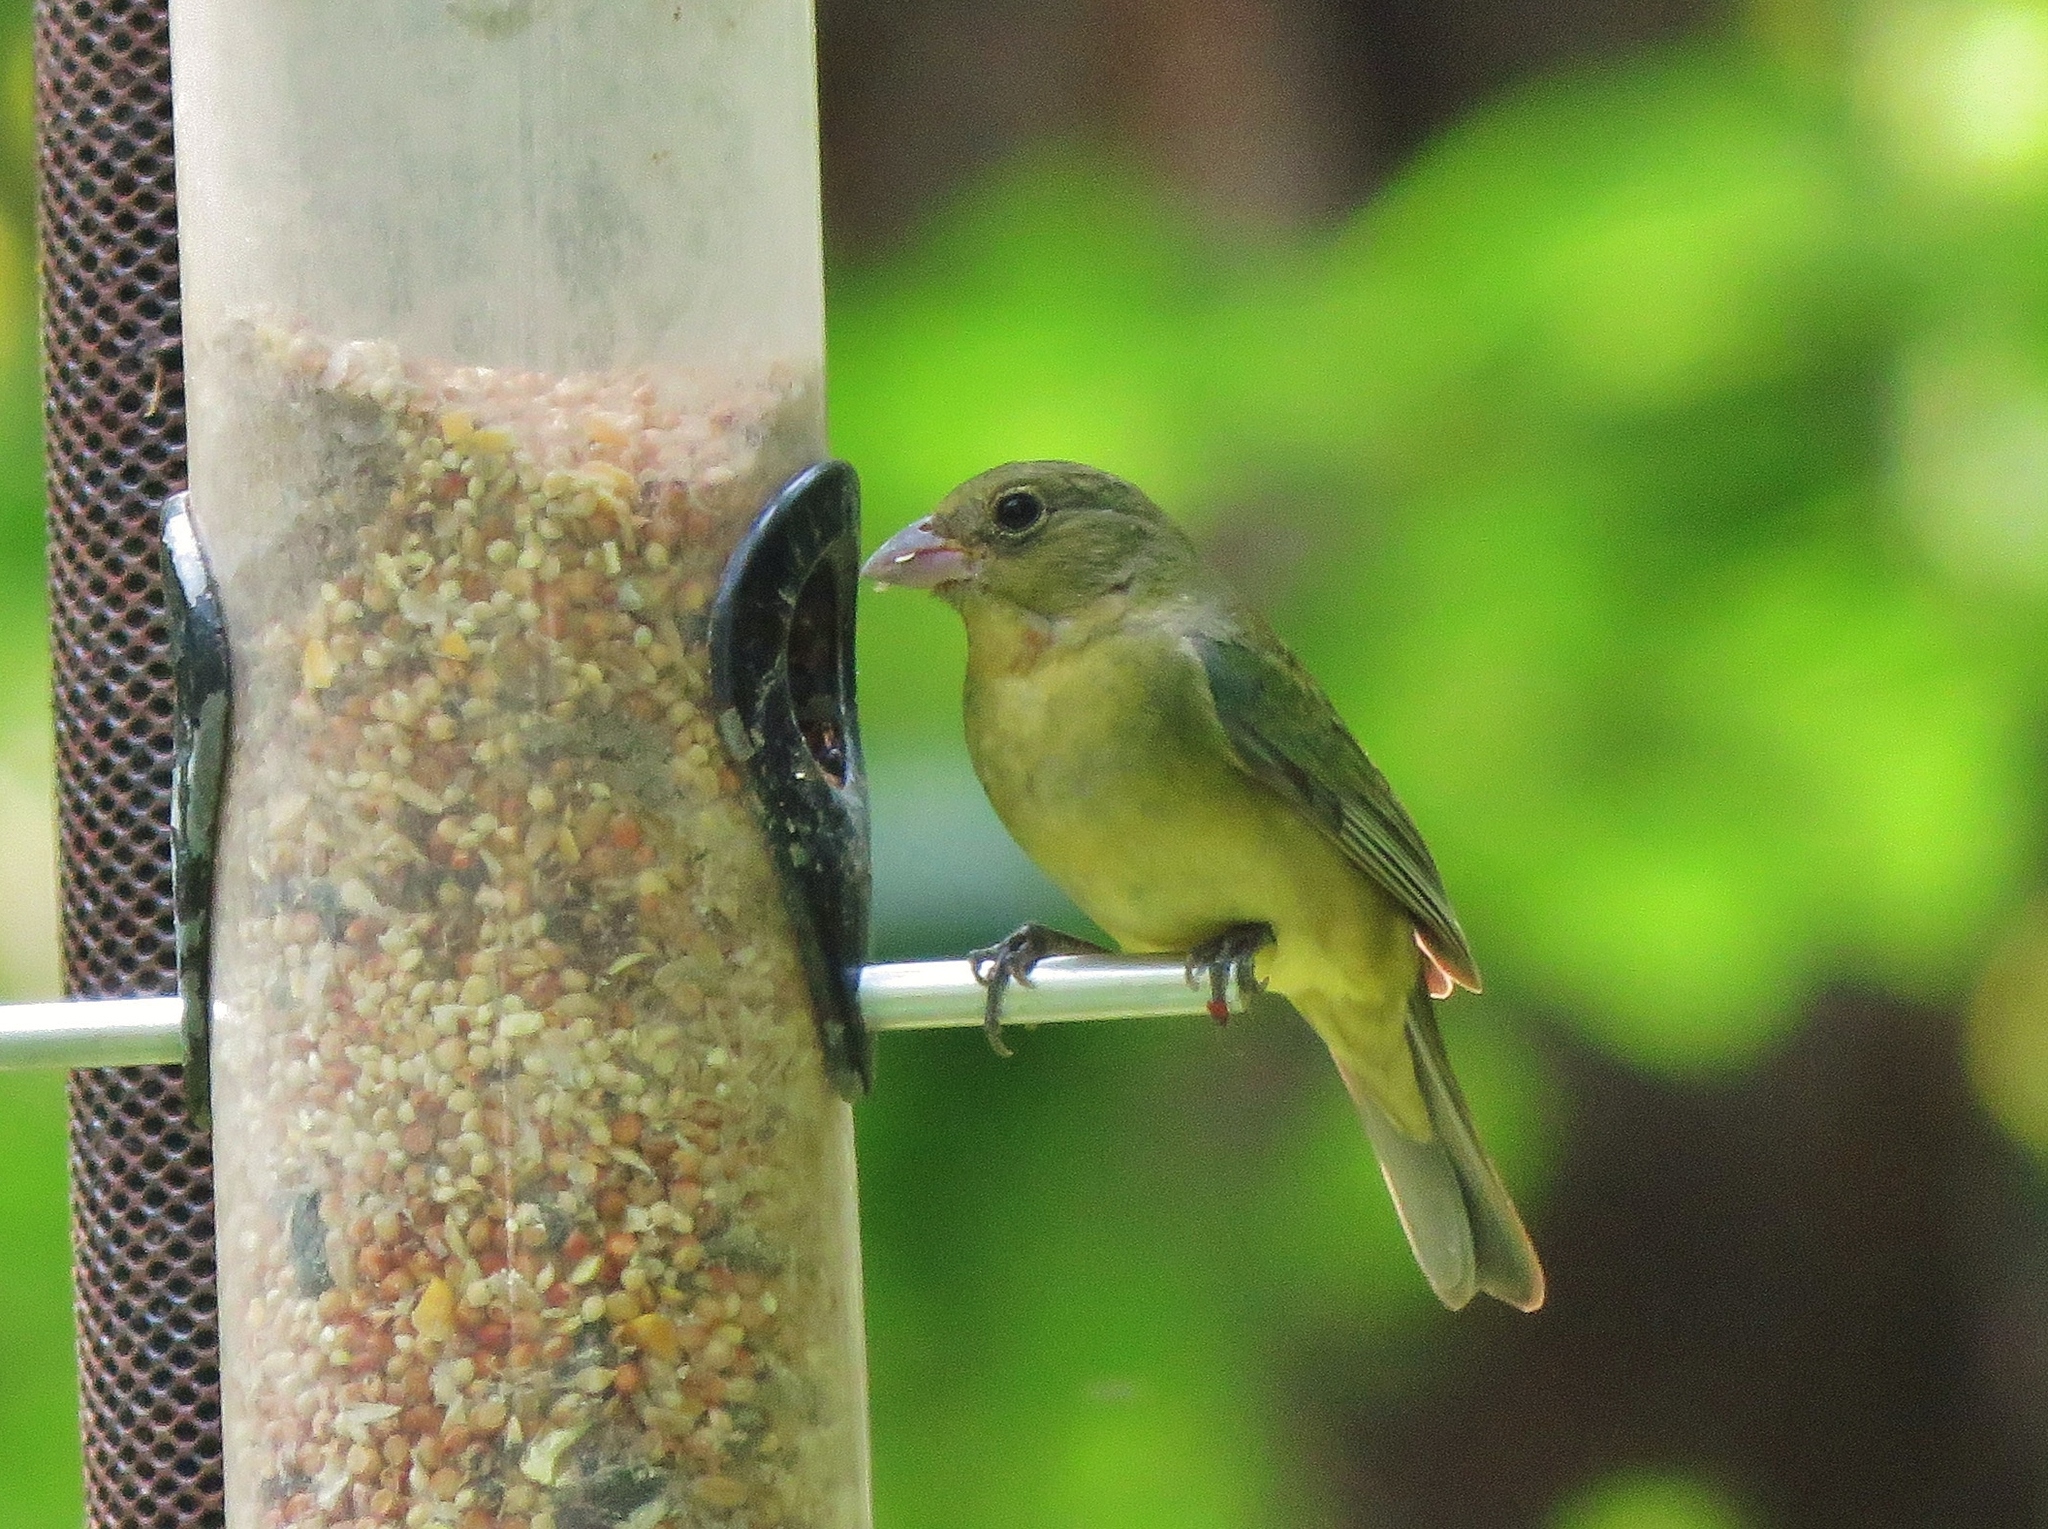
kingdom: Animalia
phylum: Chordata
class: Aves
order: Passeriformes
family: Cardinalidae
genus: Passerina
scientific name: Passerina ciris
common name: Painted bunting
